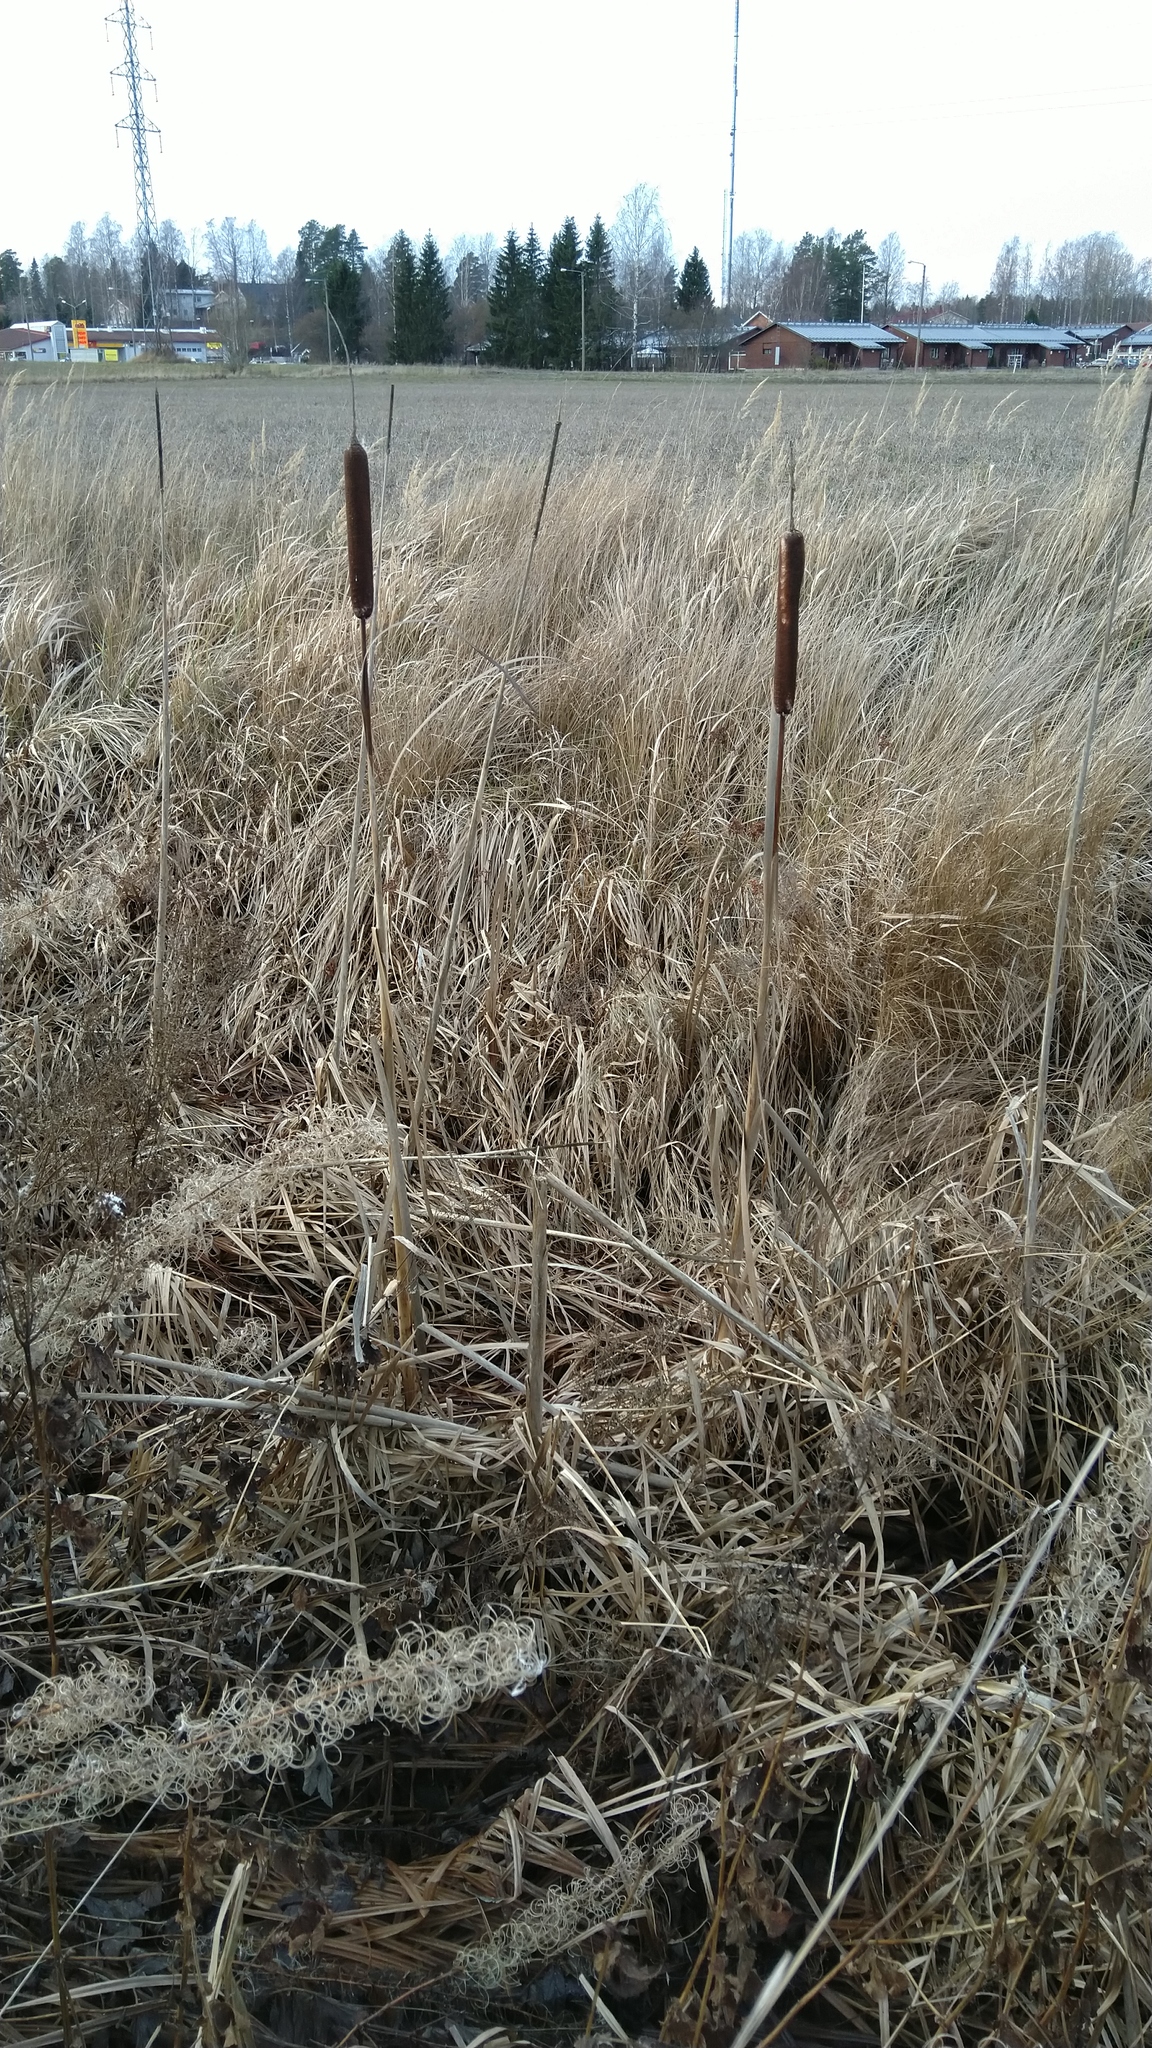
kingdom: Plantae
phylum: Tracheophyta
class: Liliopsida
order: Poales
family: Typhaceae
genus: Typha
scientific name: Typha latifolia
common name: Broadleaf cattail
